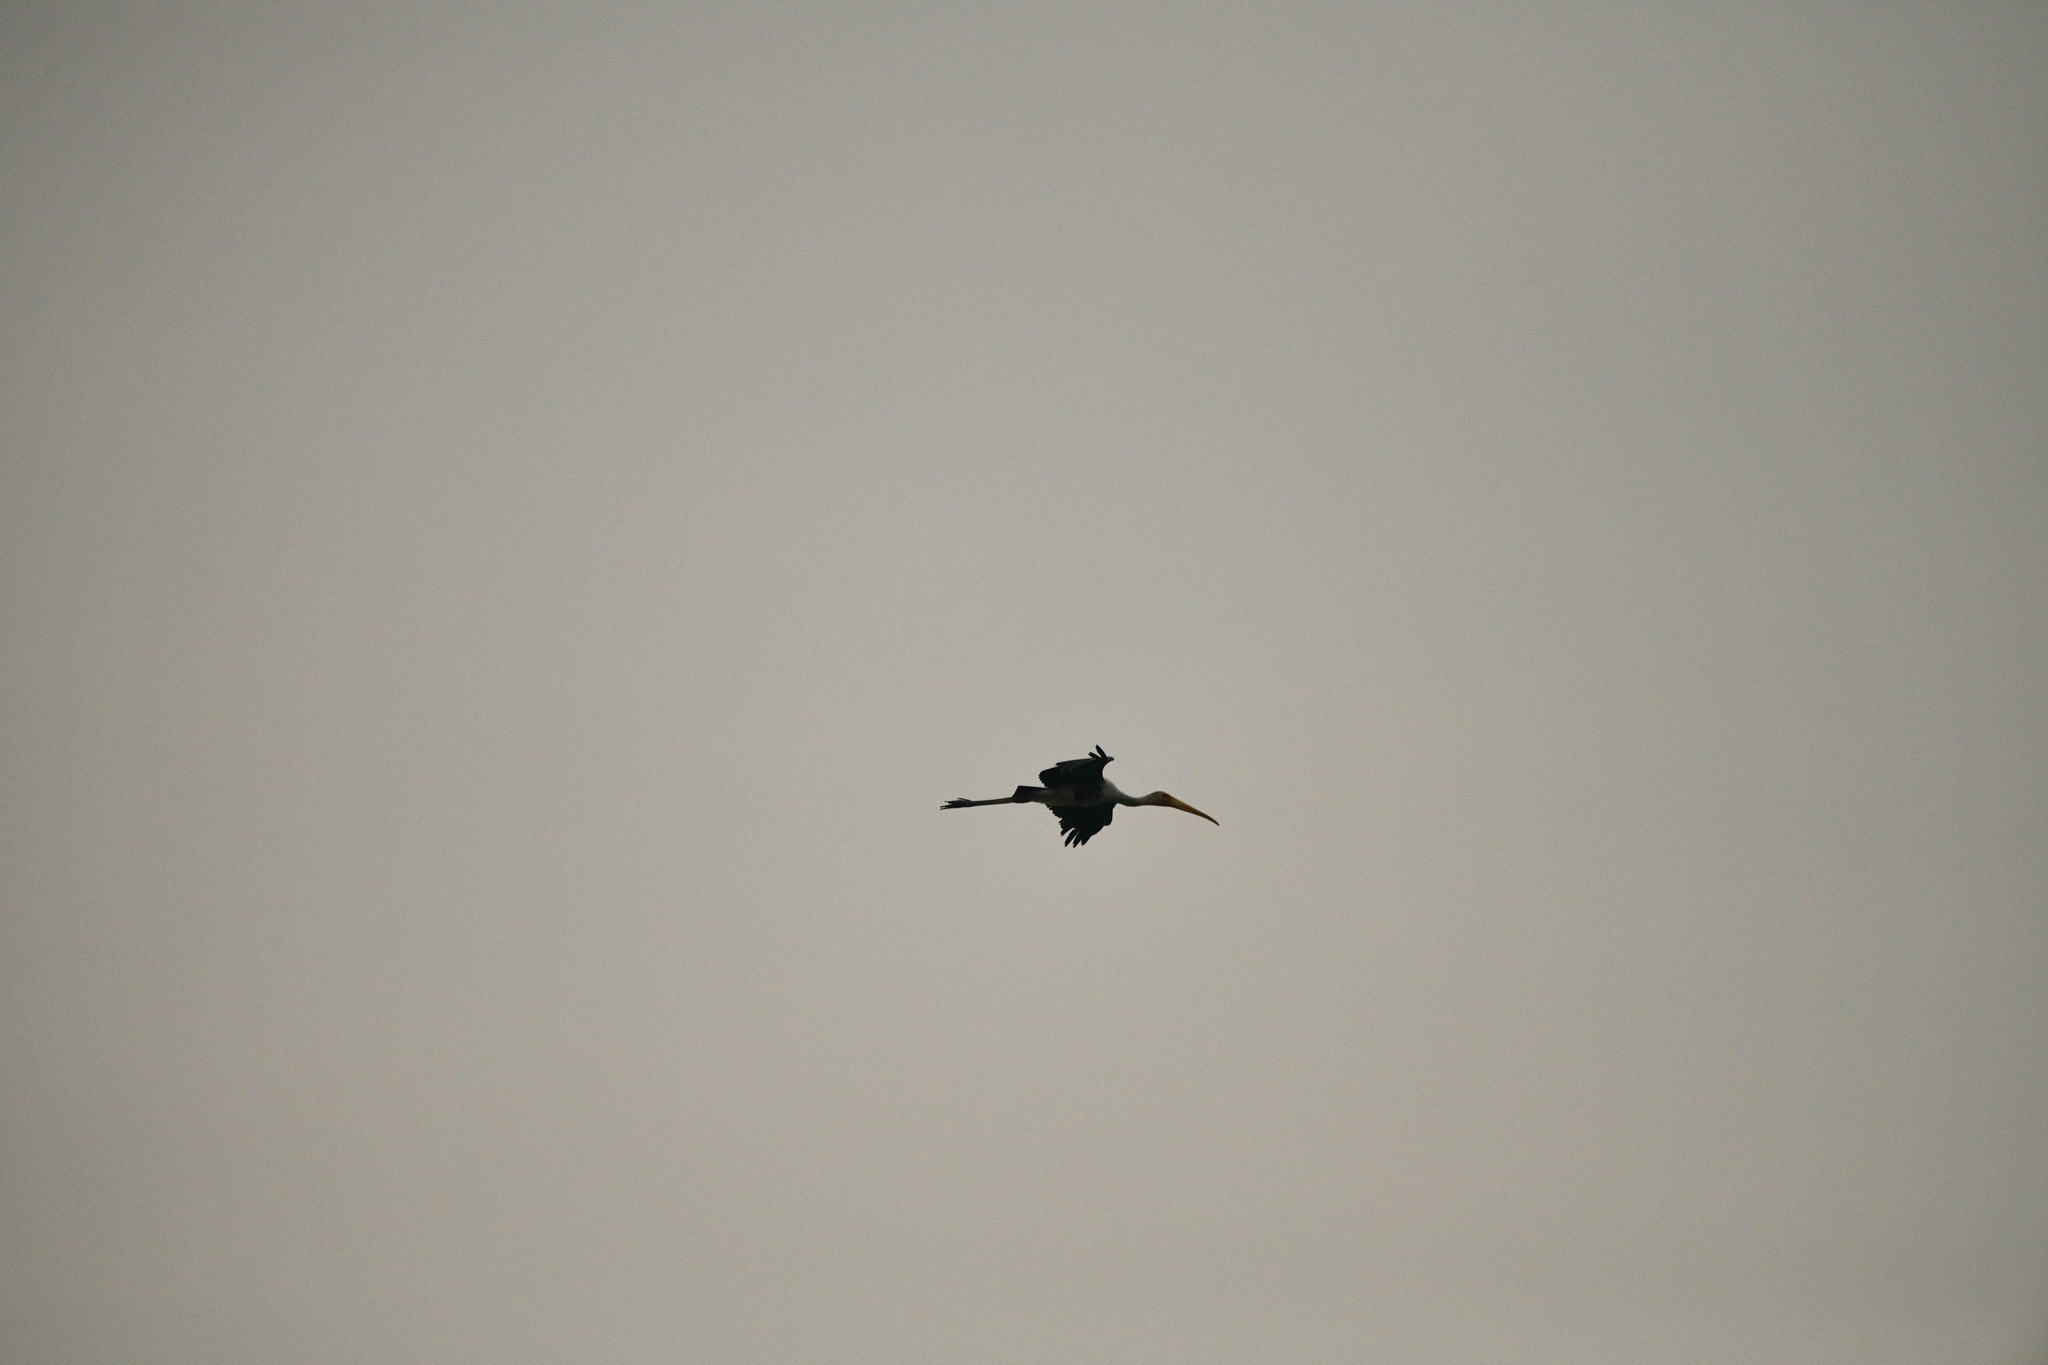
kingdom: Animalia
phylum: Chordata
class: Aves
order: Ciconiiformes
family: Ciconiidae
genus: Mycteria
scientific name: Mycteria leucocephala
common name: Painted stork
